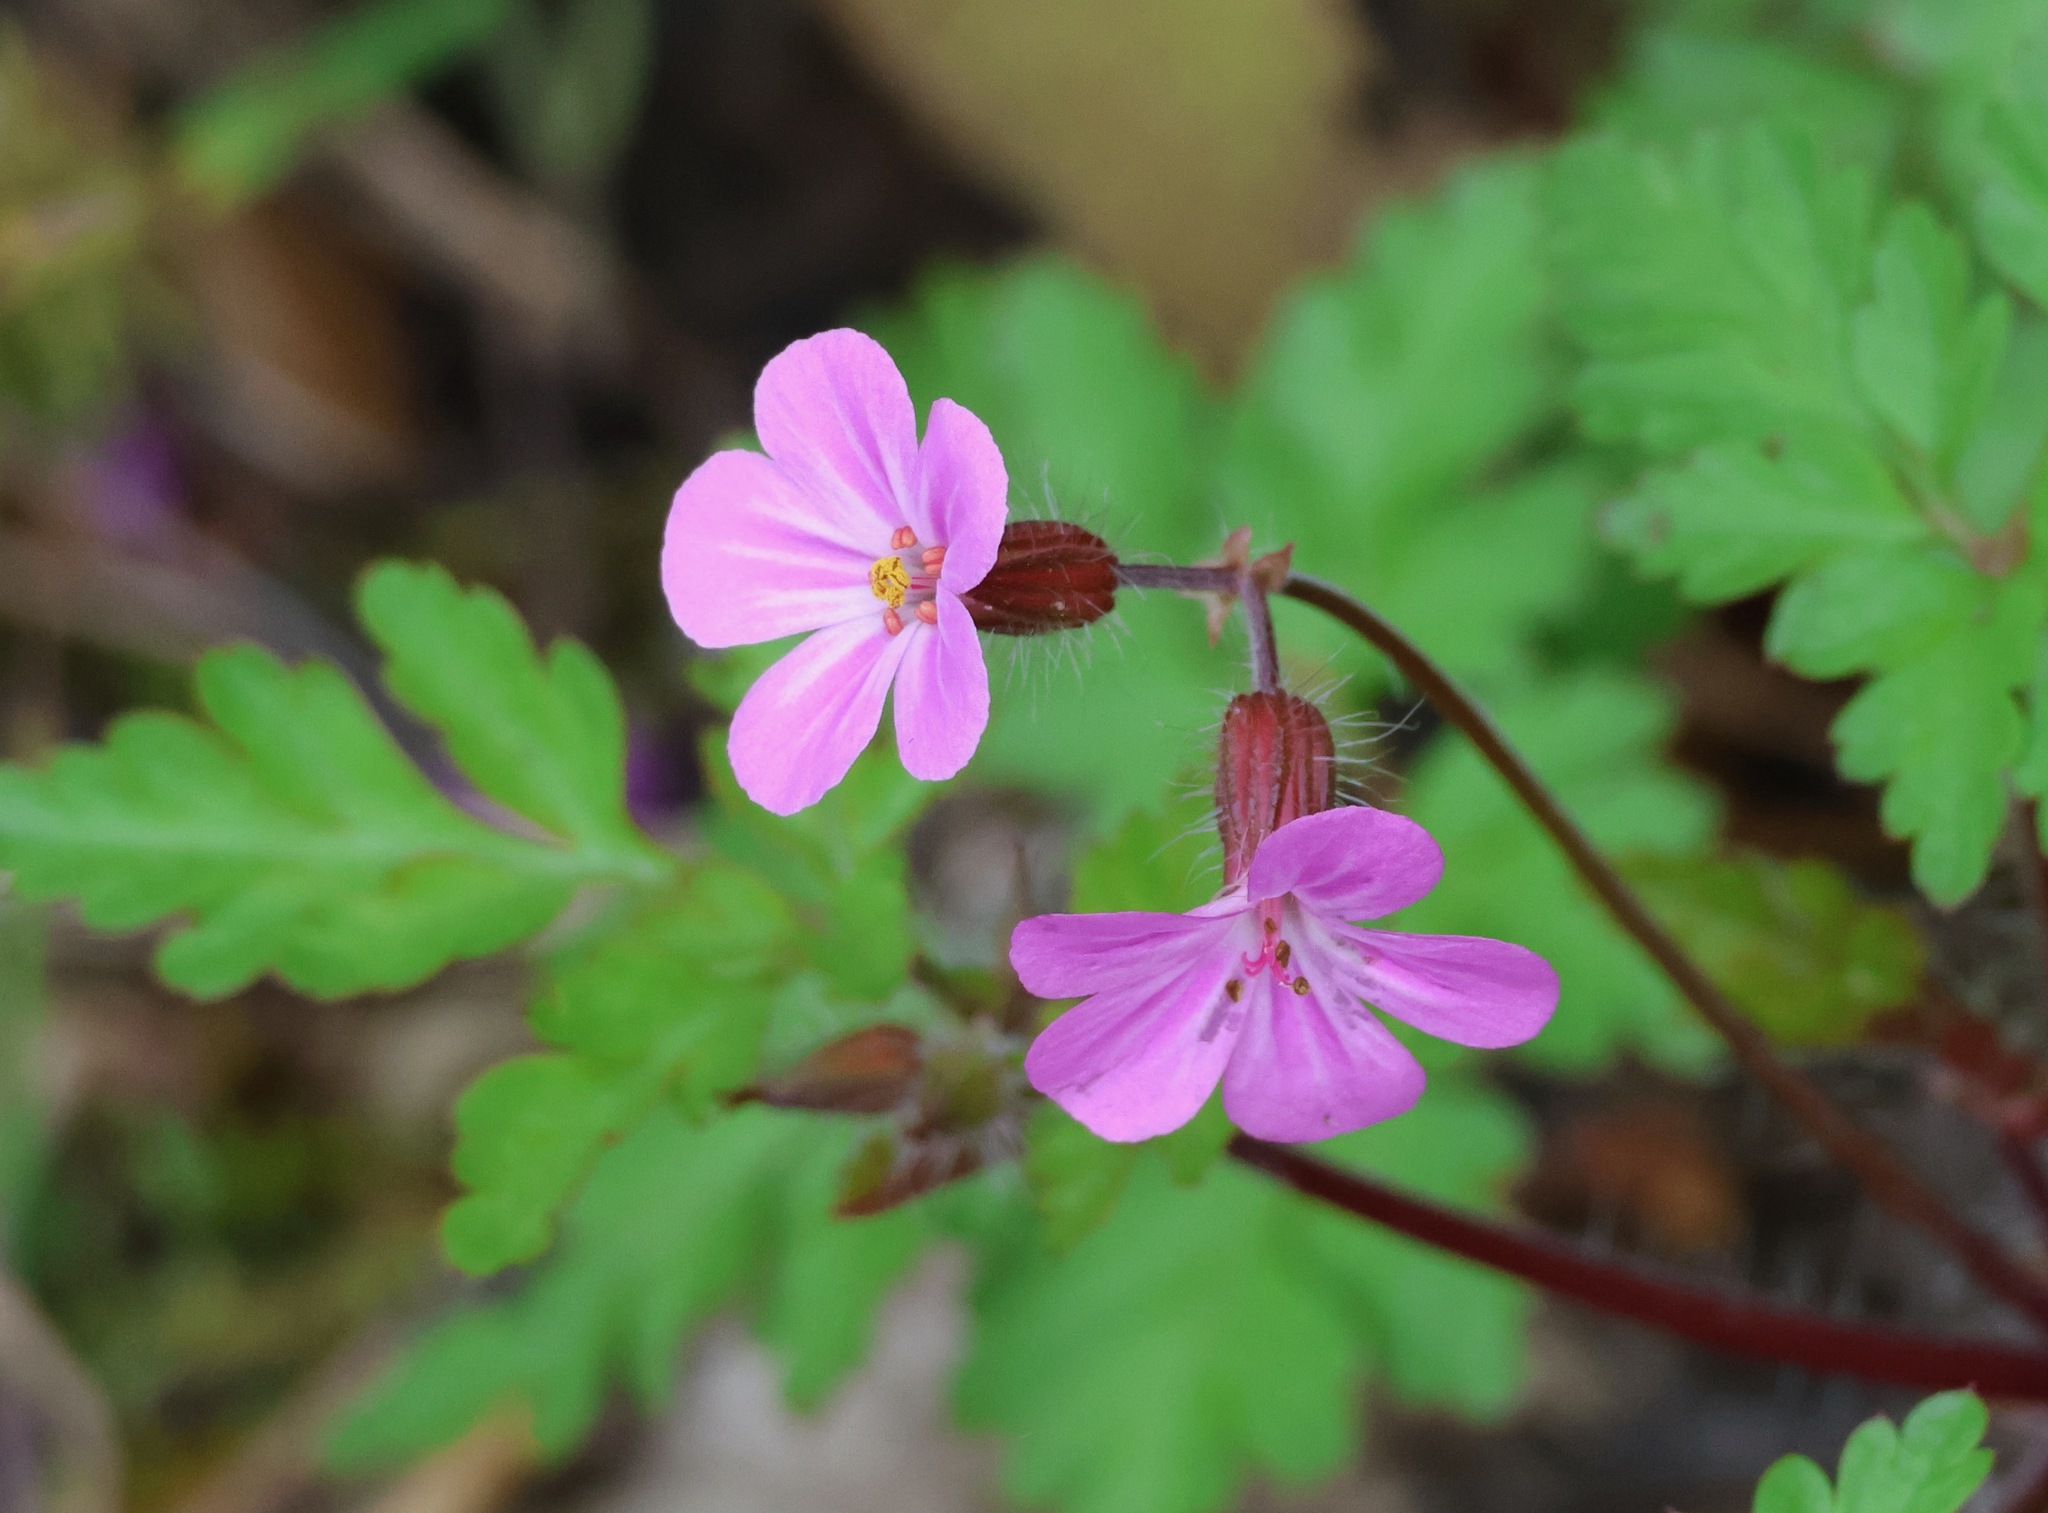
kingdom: Plantae
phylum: Tracheophyta
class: Magnoliopsida
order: Geraniales
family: Geraniaceae
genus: Geranium
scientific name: Geranium robertianum
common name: Herb-robert
